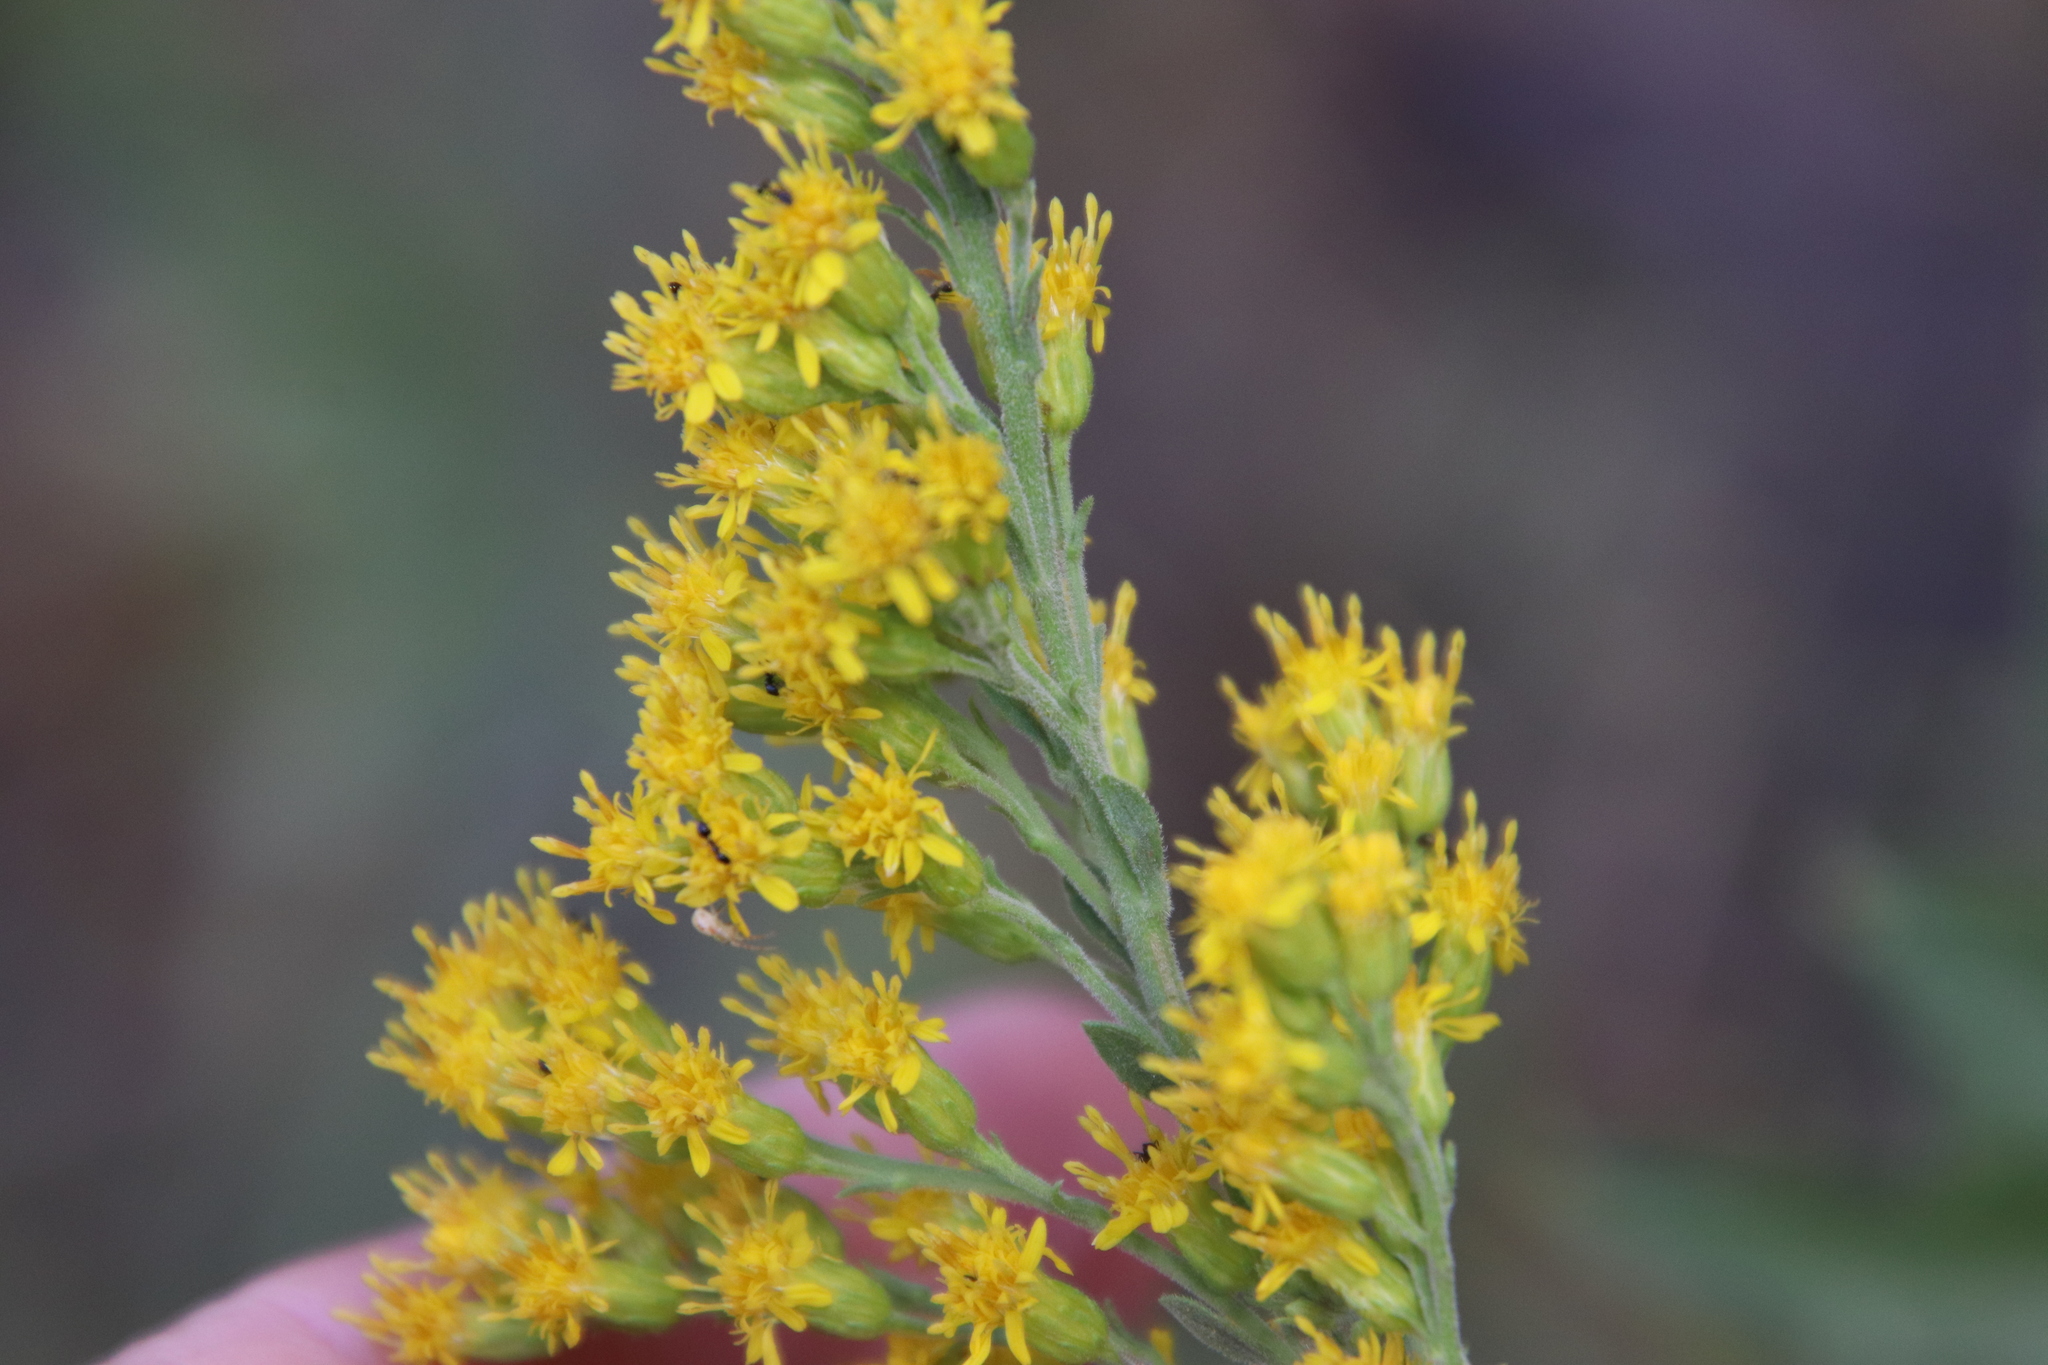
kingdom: Plantae
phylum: Tracheophyta
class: Magnoliopsida
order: Asterales
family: Asteraceae
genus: Solidago
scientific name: Solidago californica
